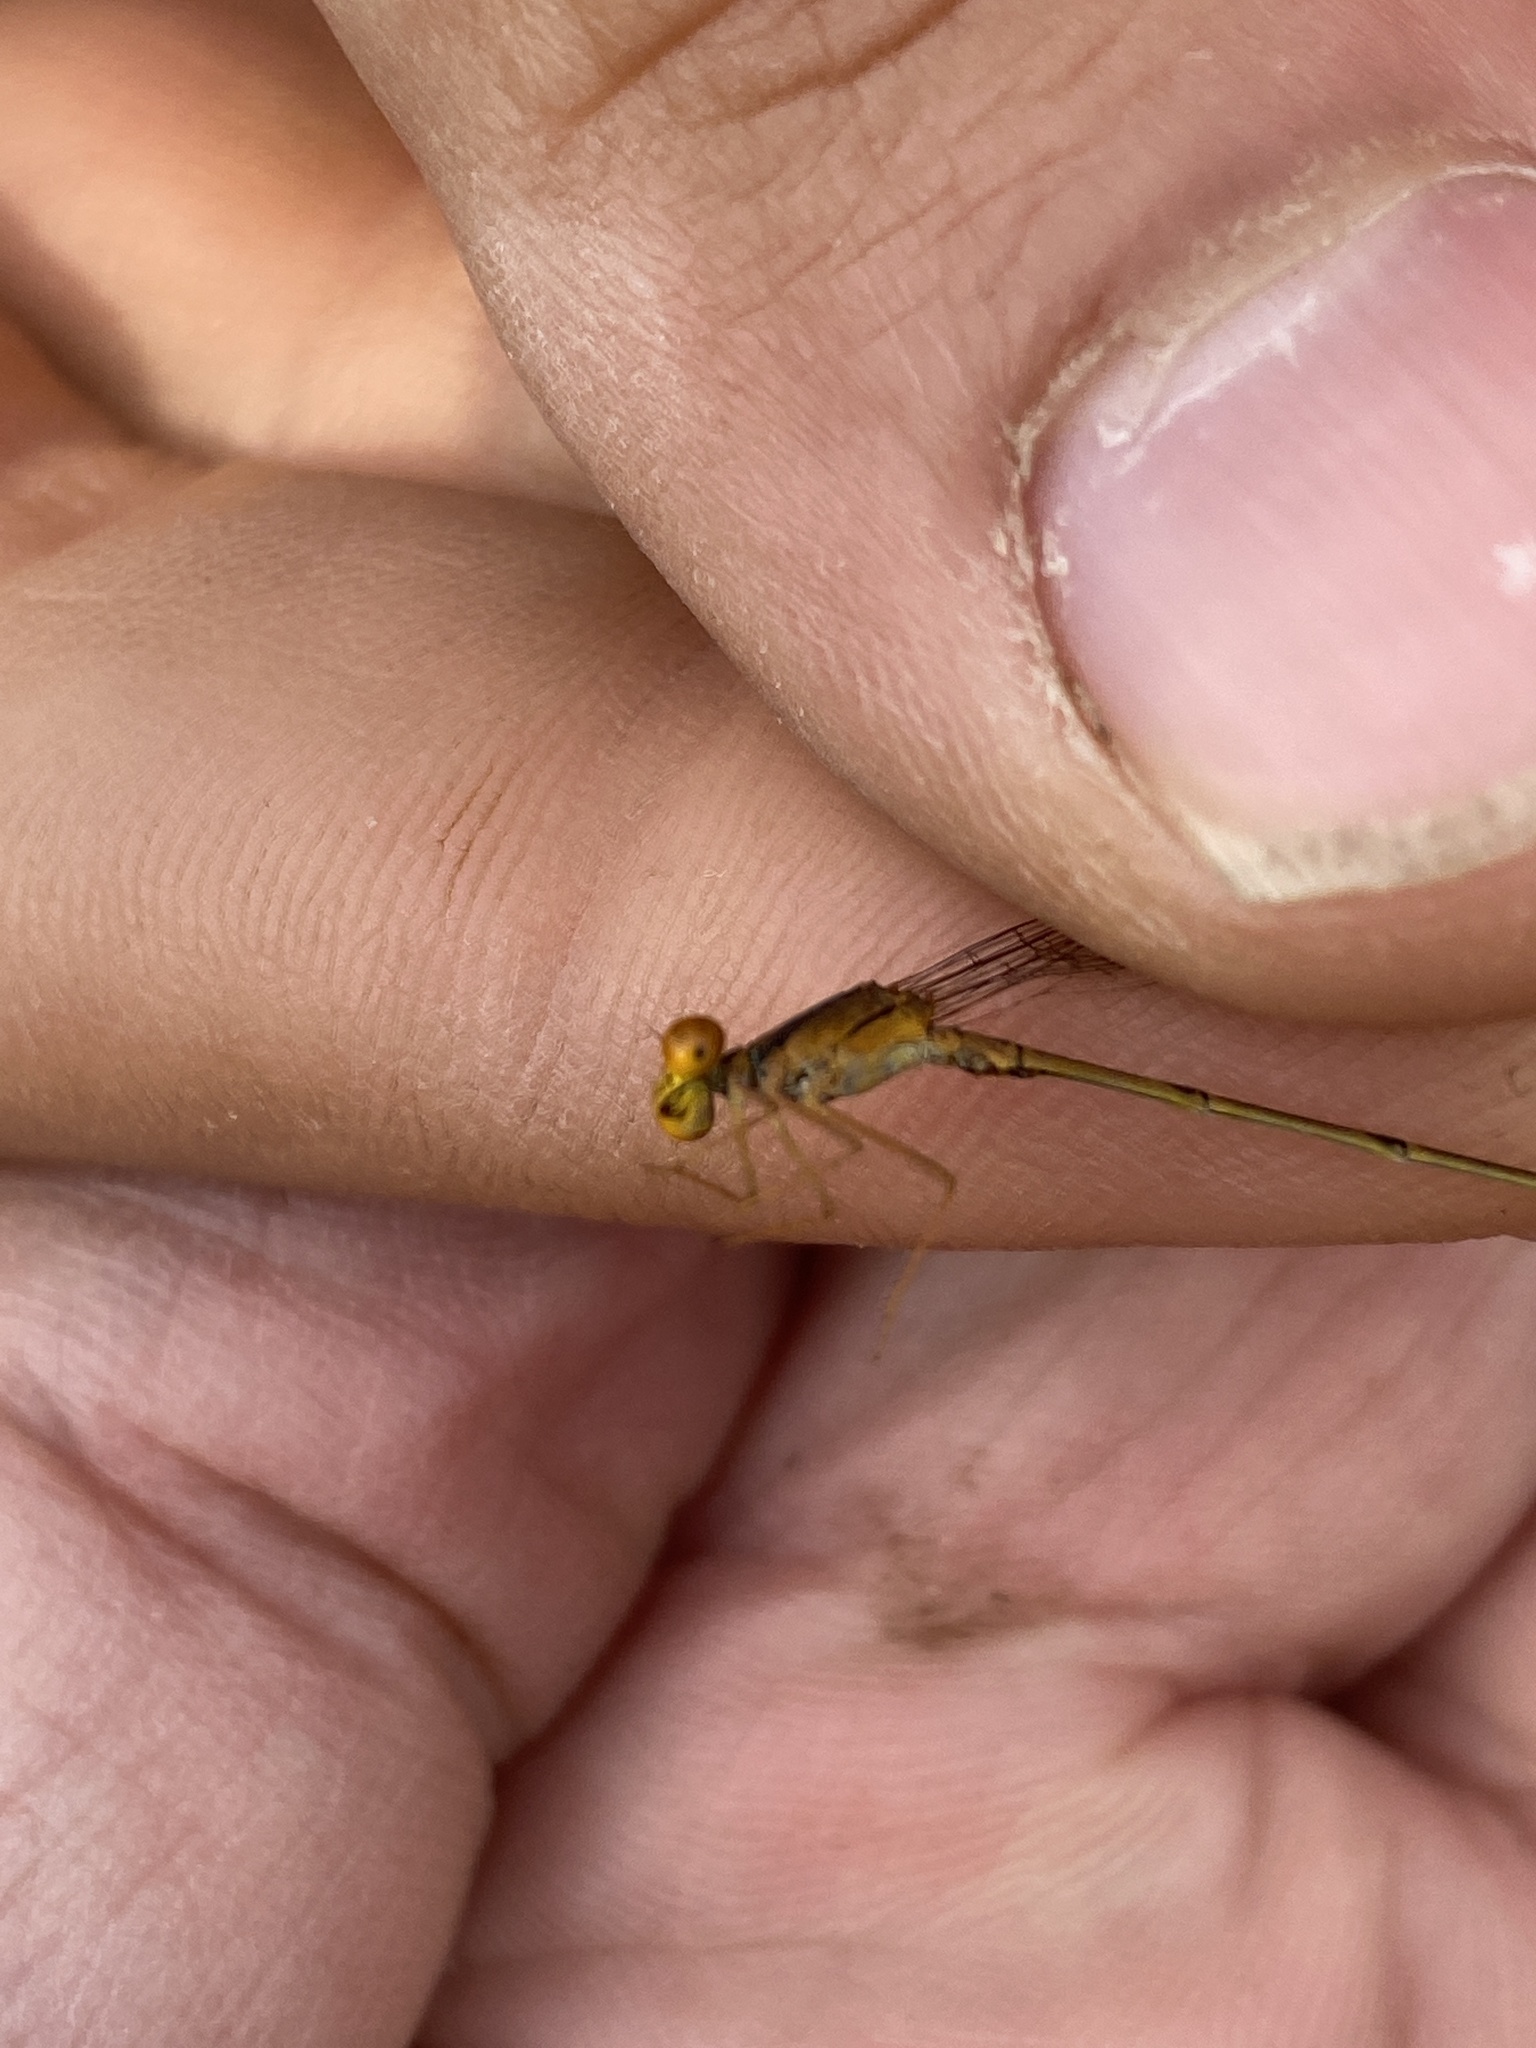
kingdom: Animalia
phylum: Arthropoda
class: Insecta
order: Odonata
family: Coenagrionidae
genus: Enallagma
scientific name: Enallagma signatum
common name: Orange bluet
